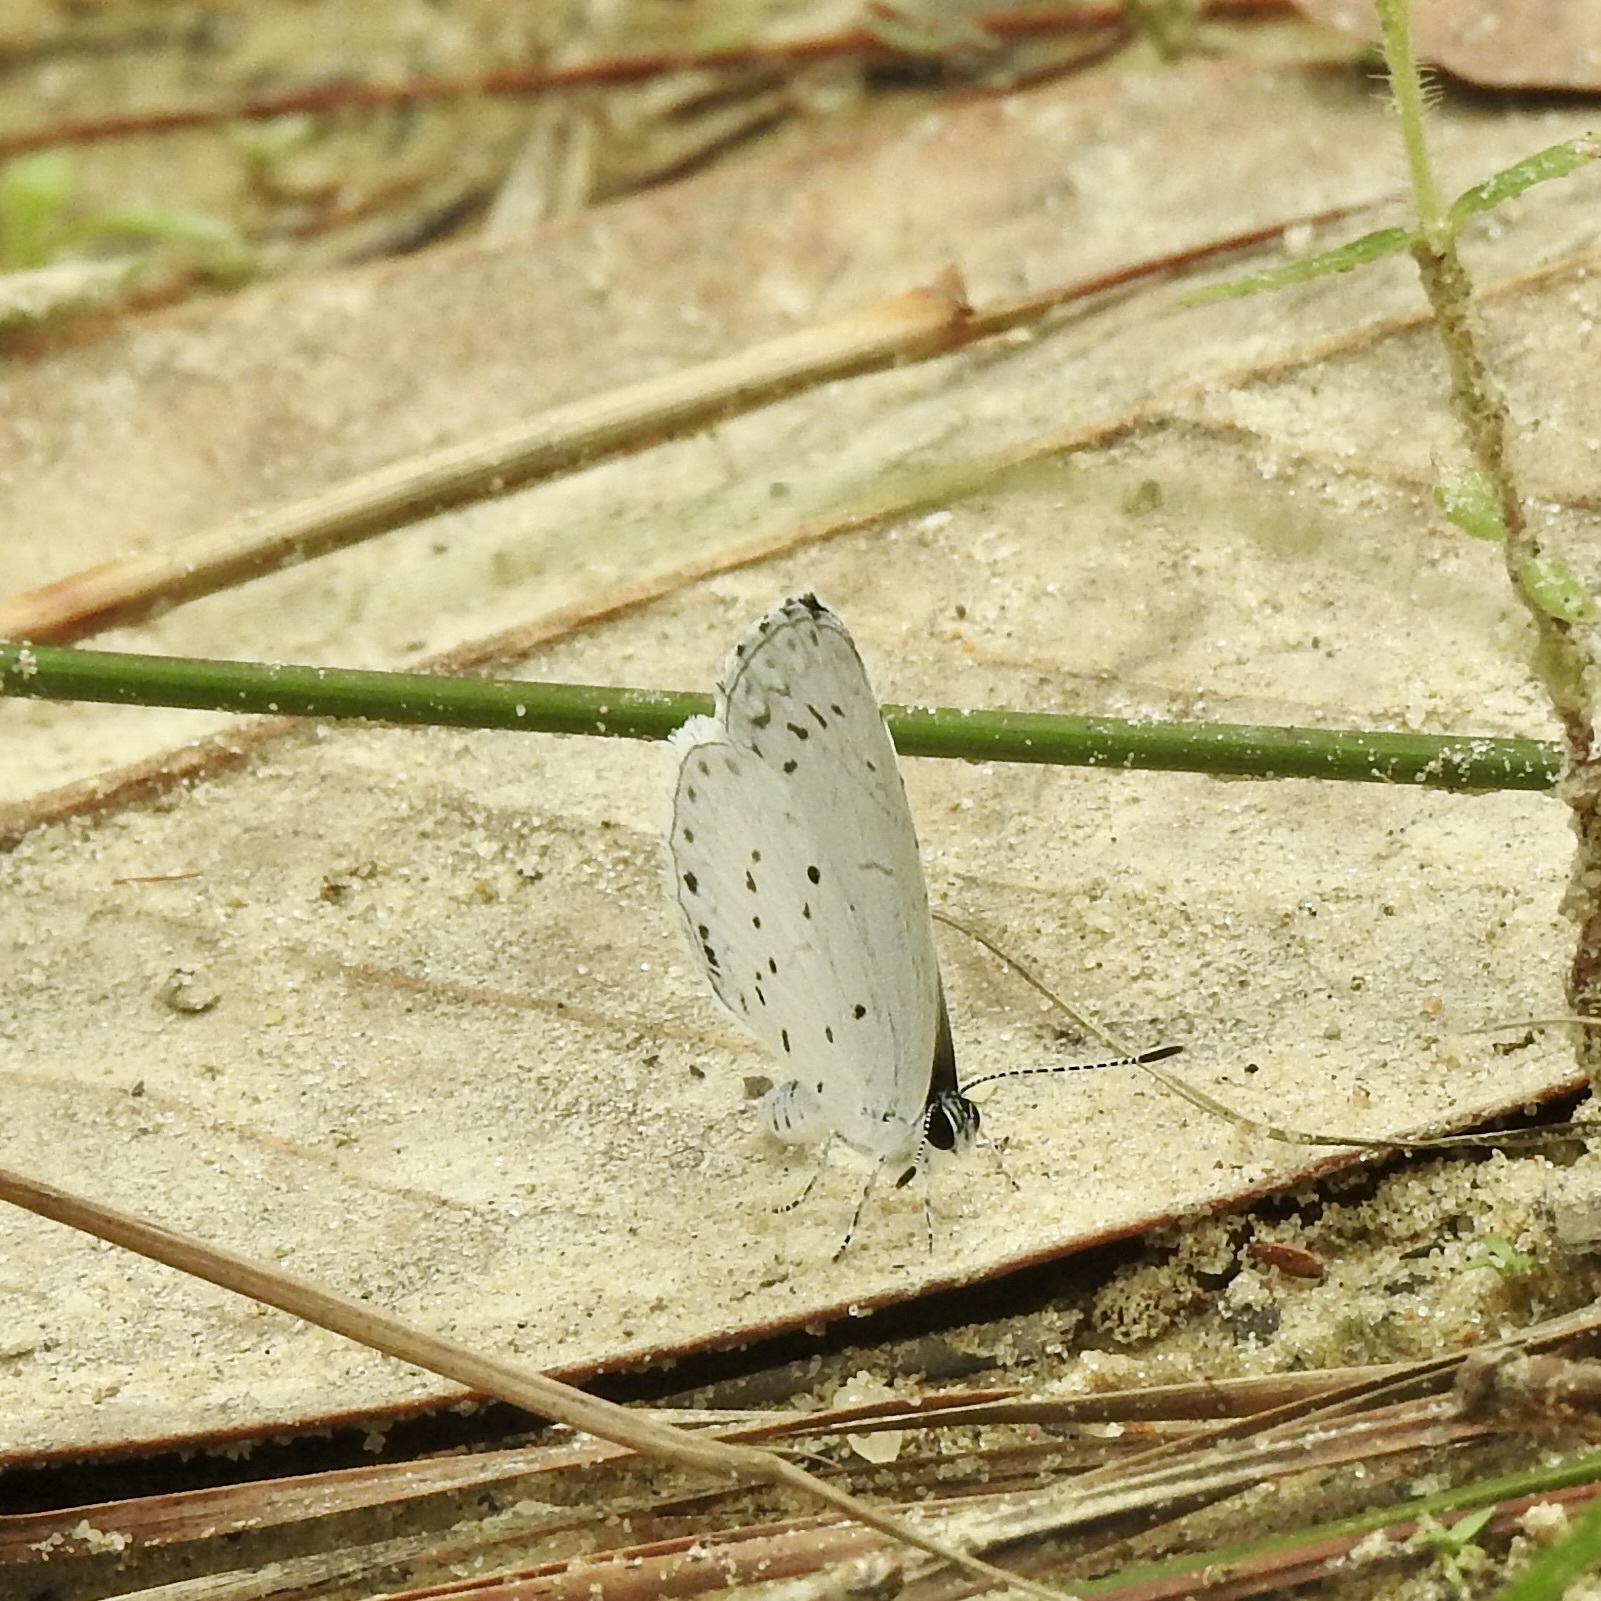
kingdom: Animalia
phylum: Arthropoda
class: Insecta
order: Lepidoptera
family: Lycaenidae
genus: Cyaniris
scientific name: Cyaniris neglecta
